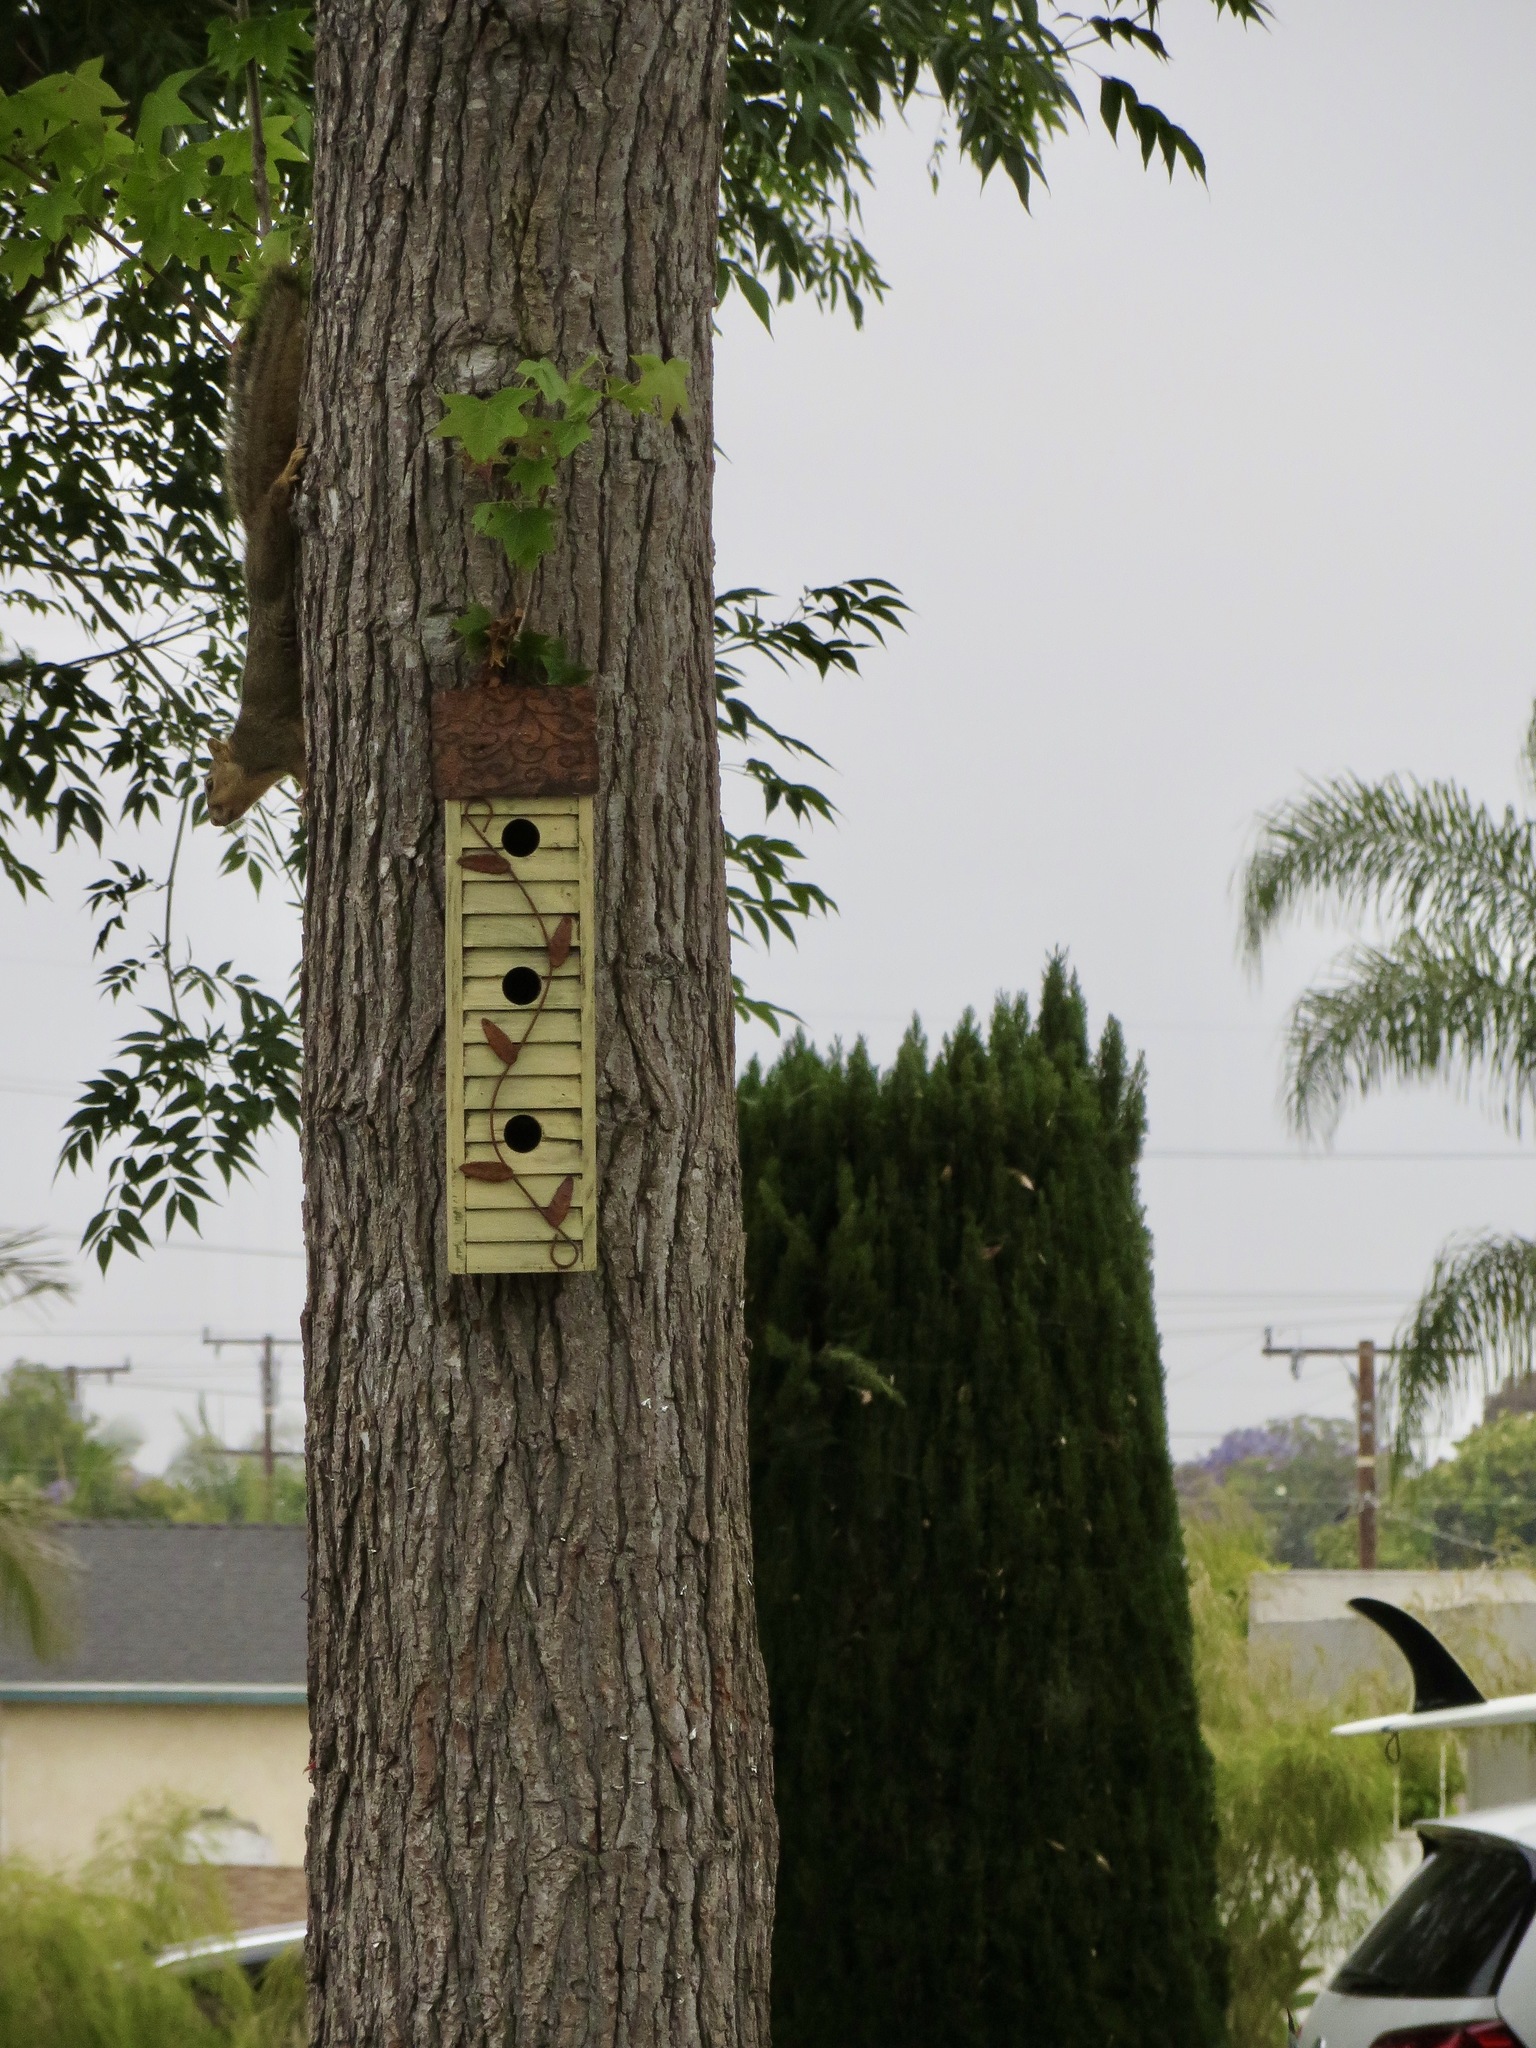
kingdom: Animalia
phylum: Chordata
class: Mammalia
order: Rodentia
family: Sciuridae
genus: Sciurus
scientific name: Sciurus niger
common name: Fox squirrel
